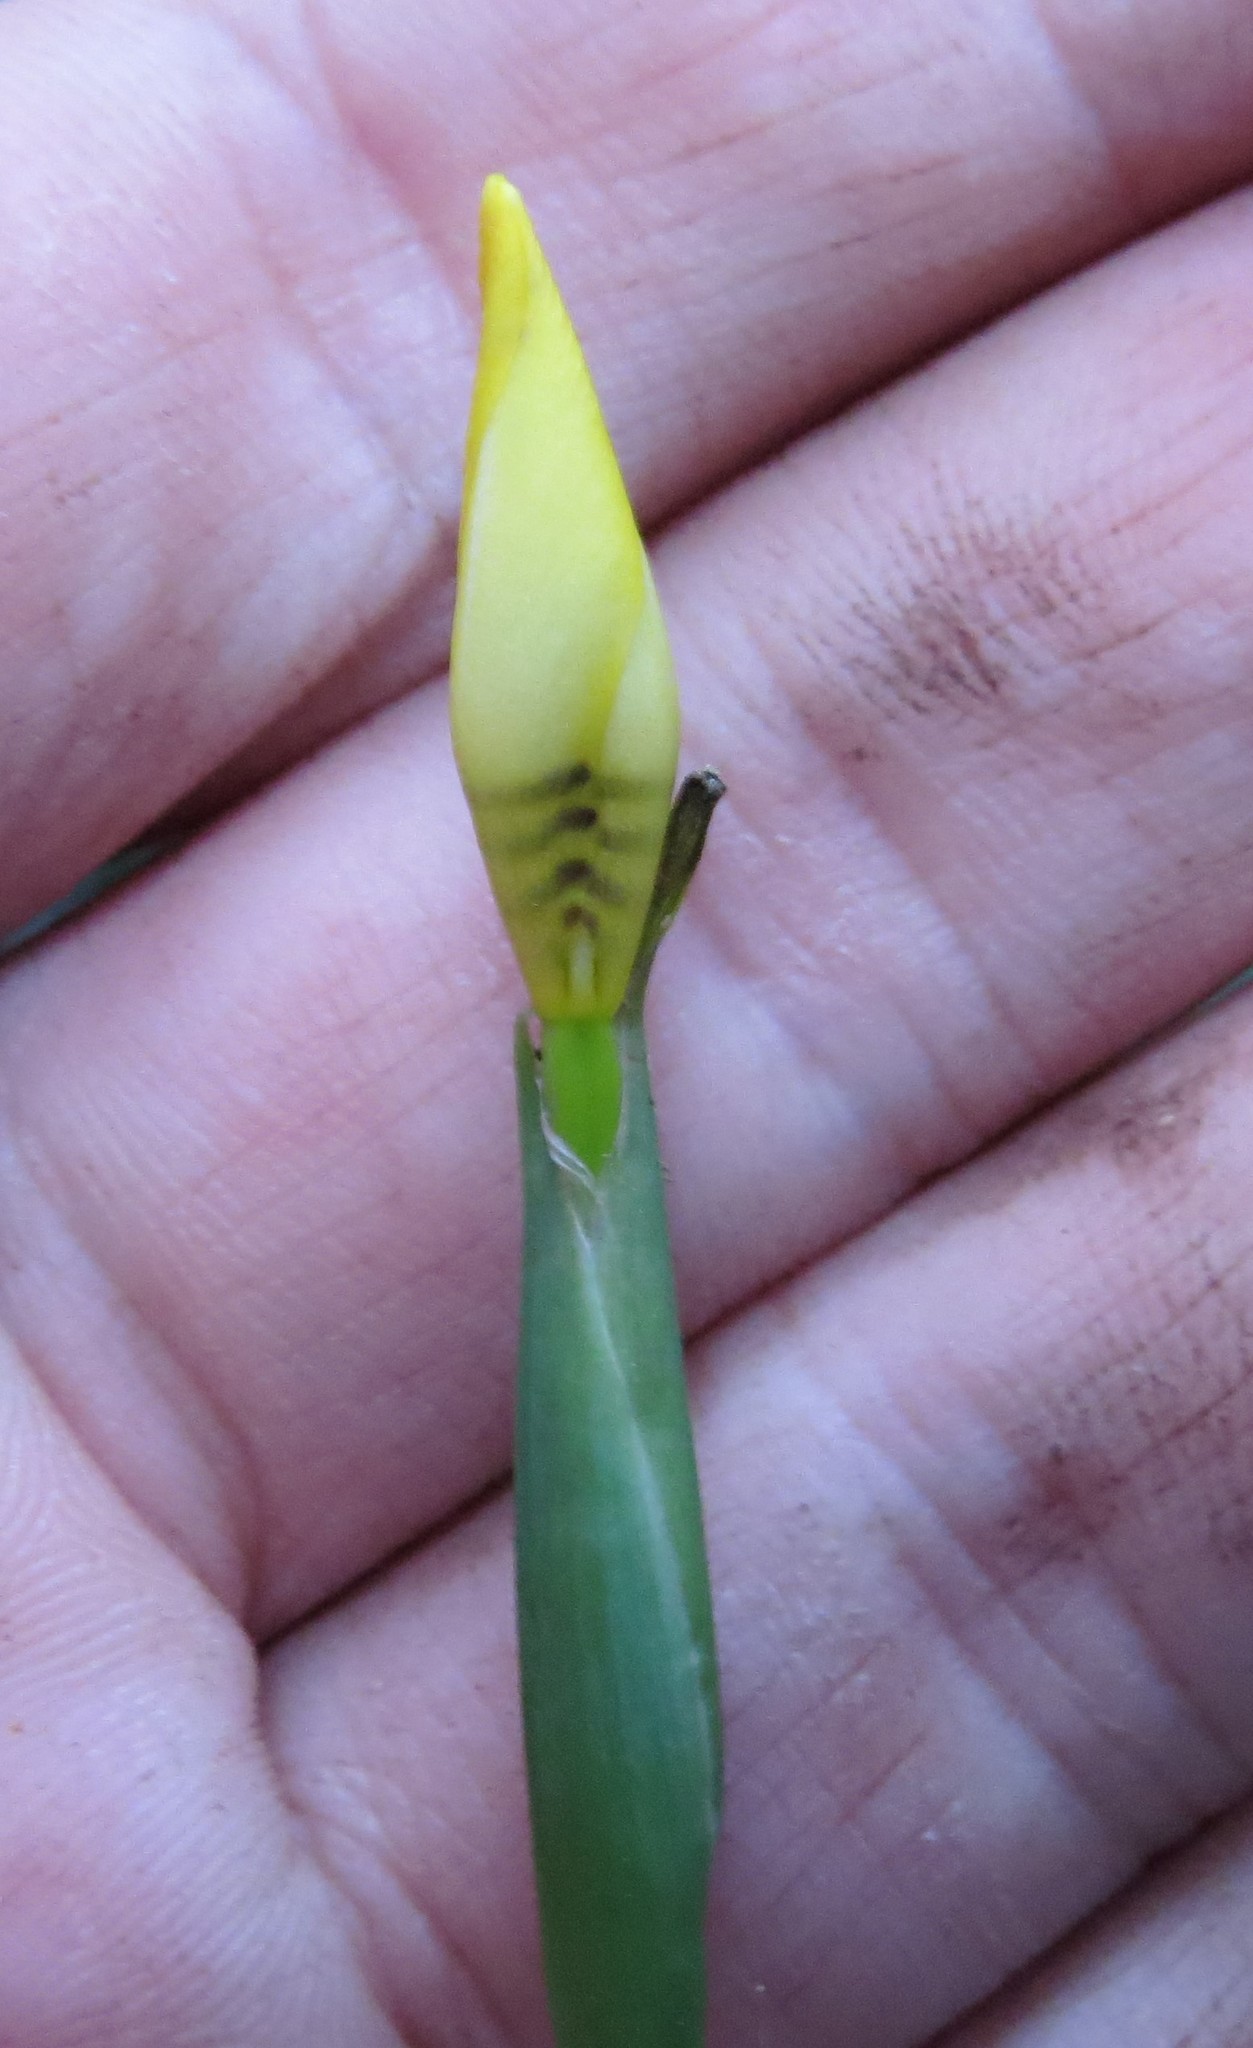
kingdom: Plantae
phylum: Tracheophyta
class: Liliopsida
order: Asparagales
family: Iridaceae
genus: Trimezia
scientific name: Trimezia gracilis
